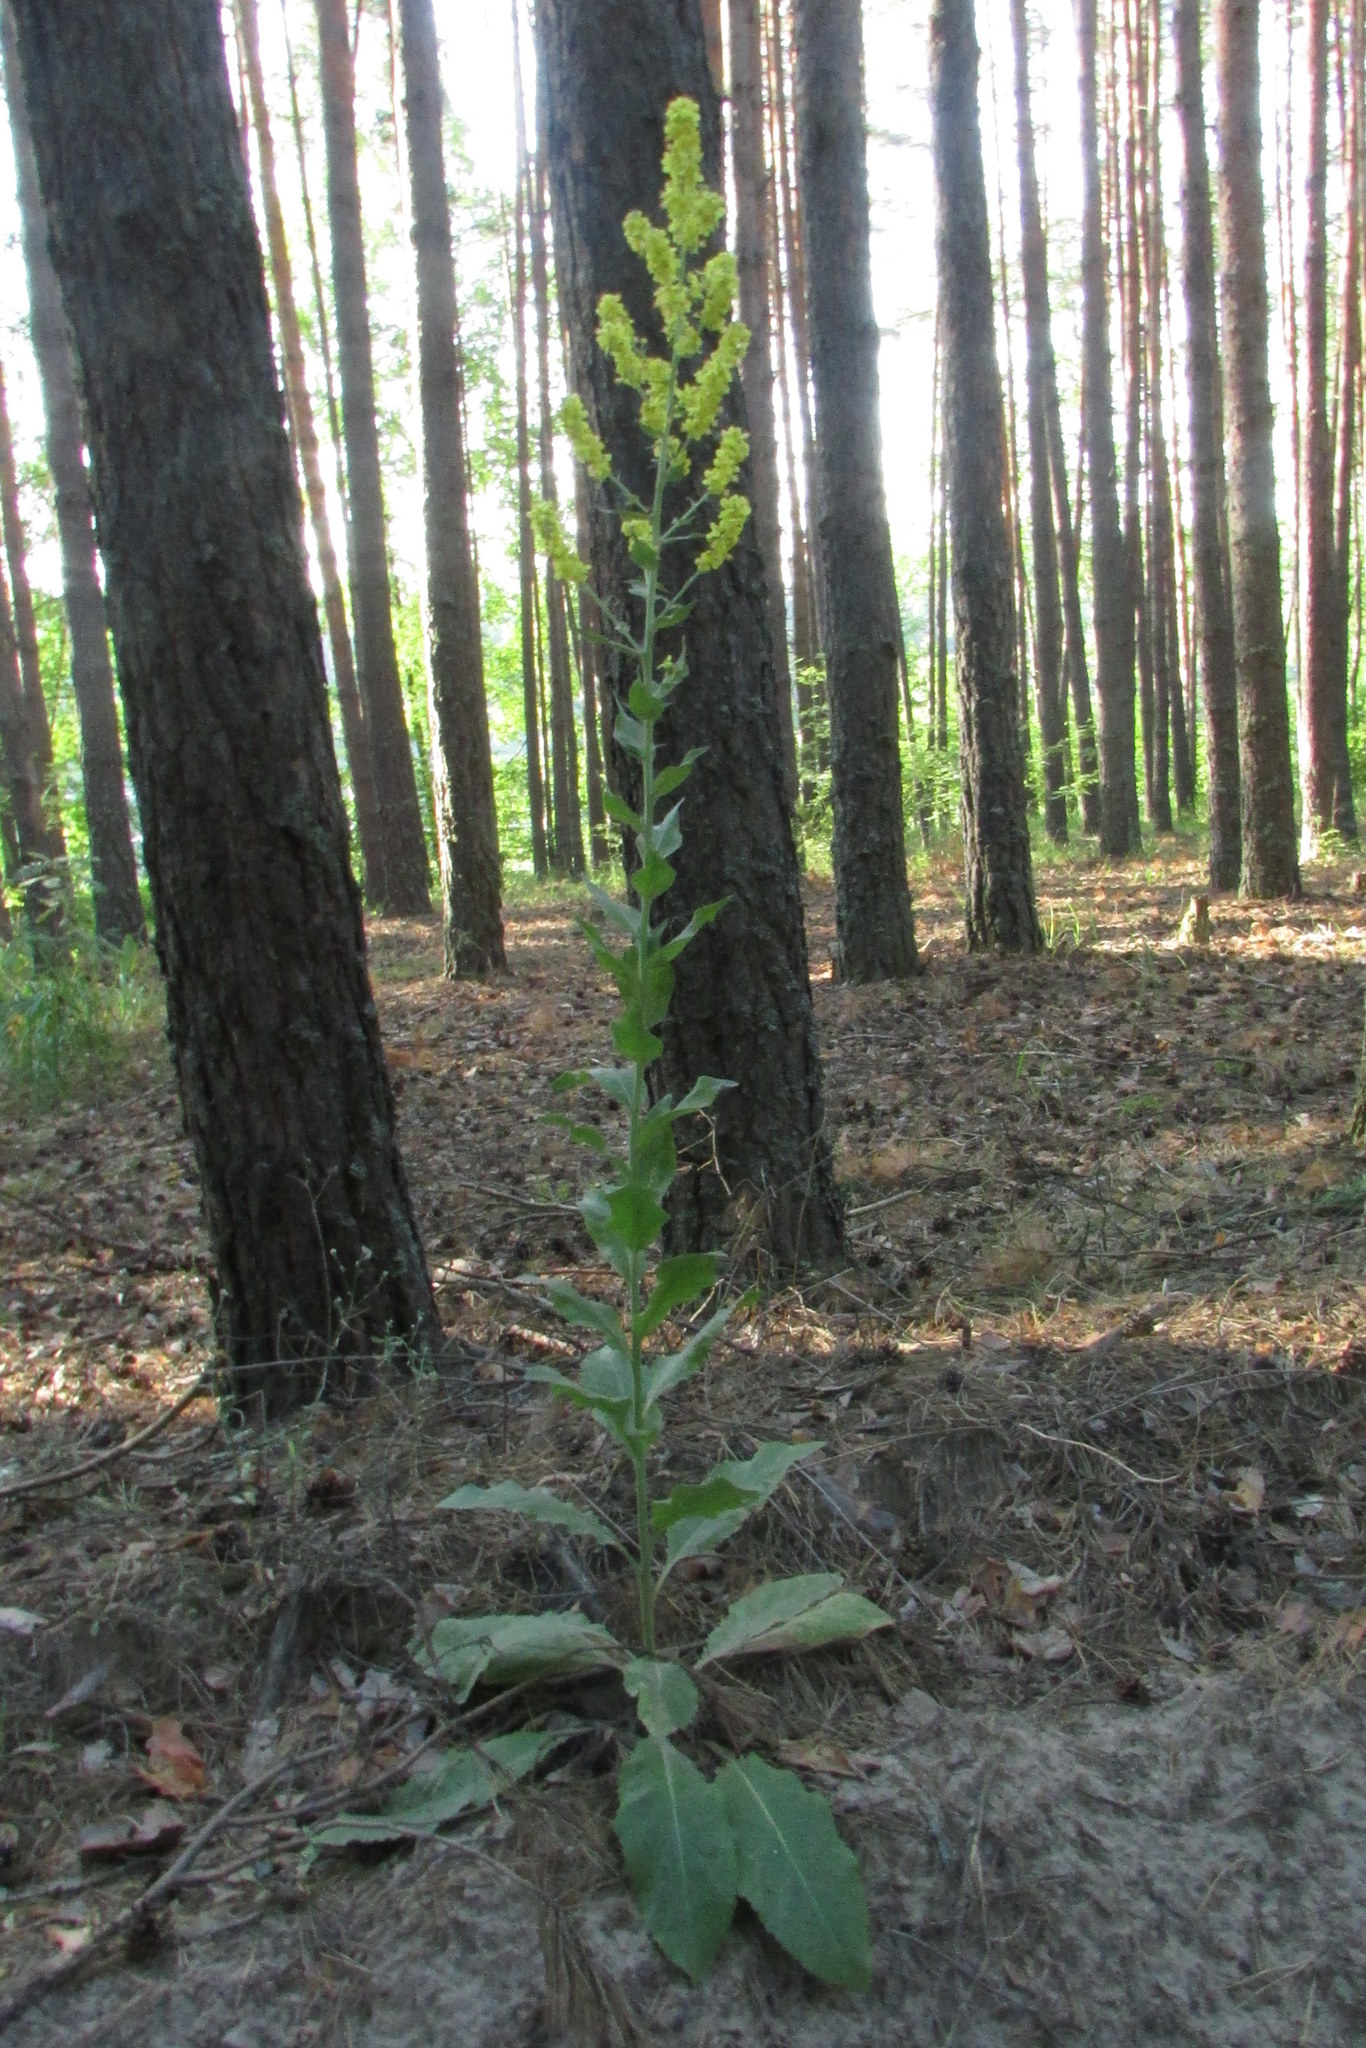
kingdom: Plantae
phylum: Tracheophyta
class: Magnoliopsida
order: Lamiales
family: Scrophulariaceae
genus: Verbascum
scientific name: Verbascum lychnitis
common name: White mullein
